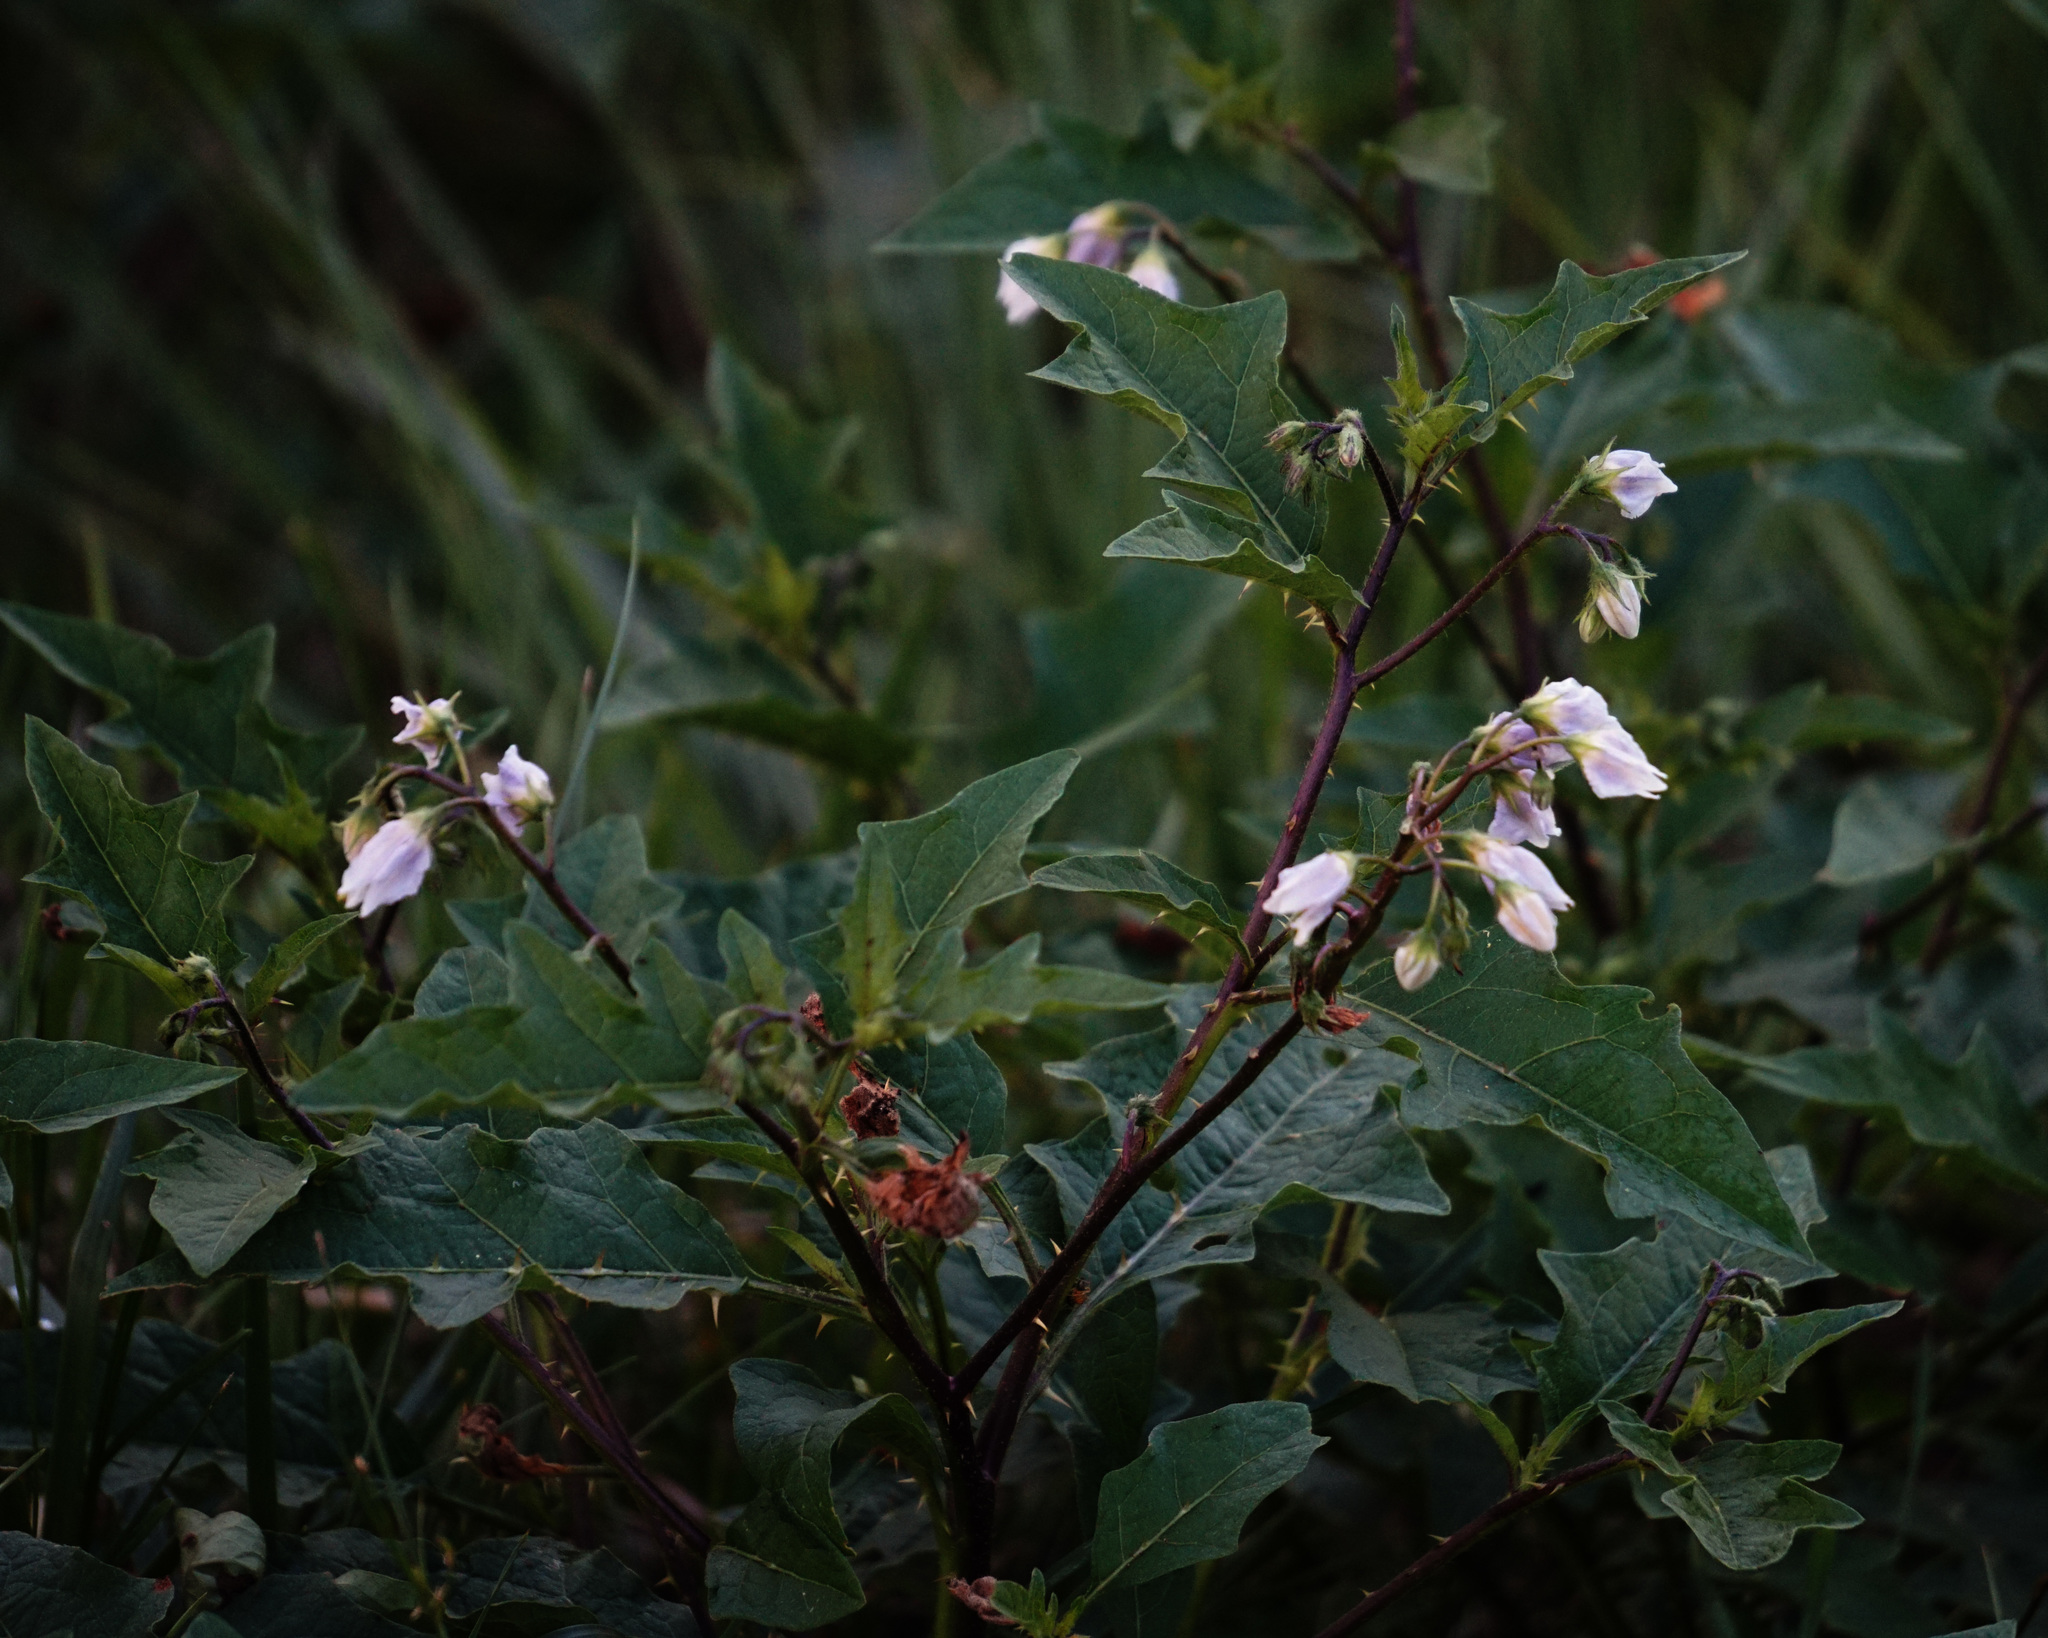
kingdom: Plantae
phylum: Tracheophyta
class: Magnoliopsida
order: Solanales
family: Solanaceae
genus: Solanum
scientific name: Solanum carolinense
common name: Horse-nettle
